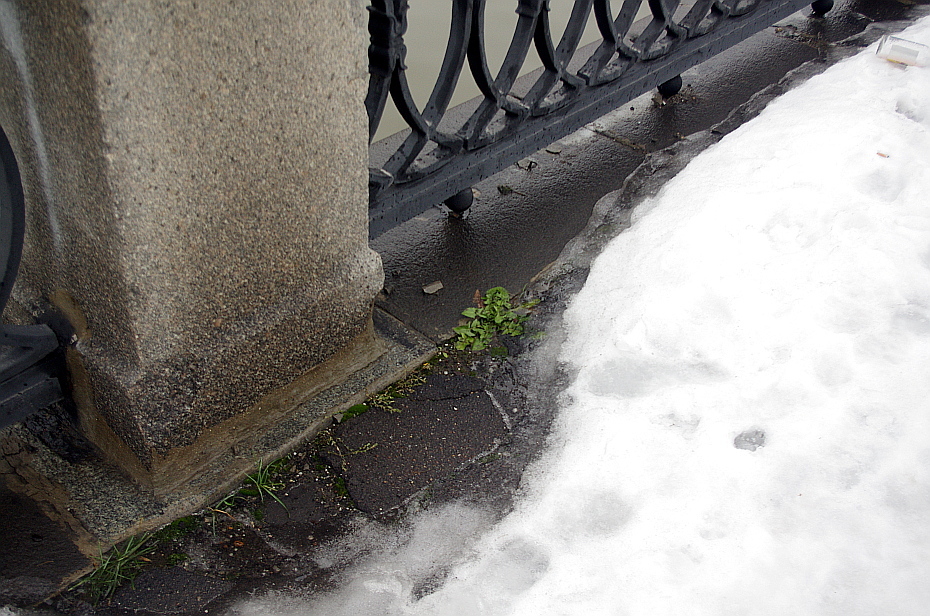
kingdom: Plantae
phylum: Tracheophyta
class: Magnoliopsida
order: Asterales
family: Asteraceae
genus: Taraxacum
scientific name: Taraxacum officinale
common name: Common dandelion
